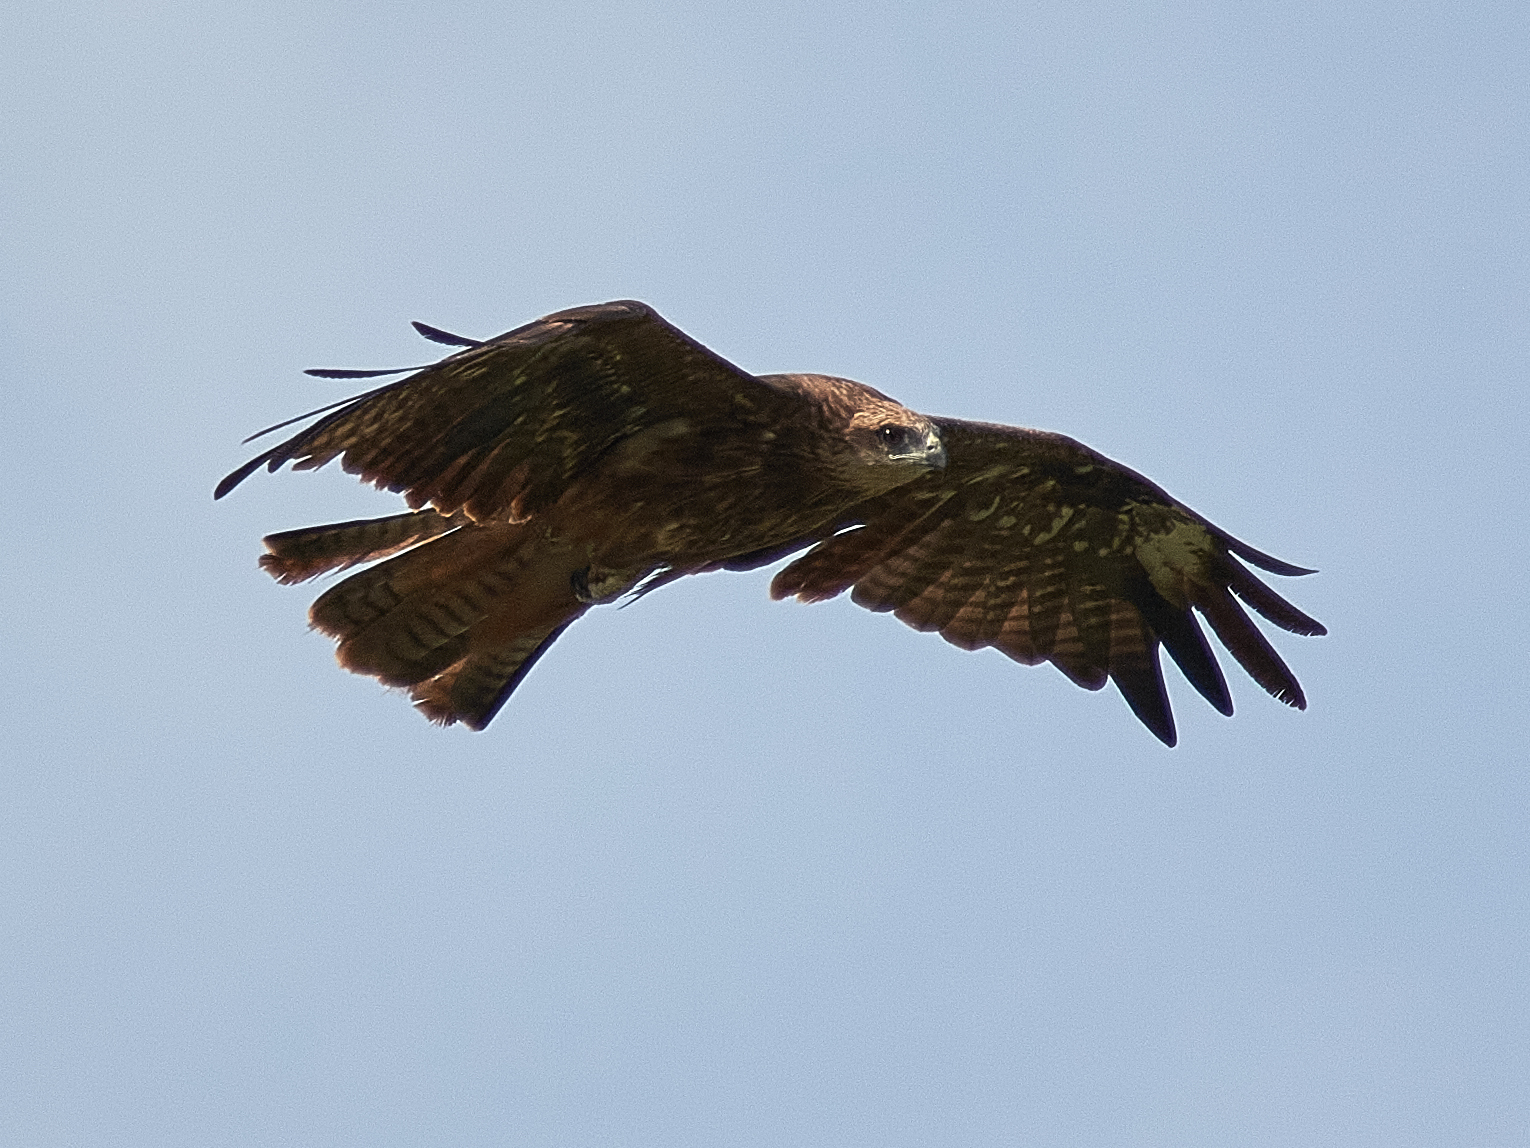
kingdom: Animalia
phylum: Chordata
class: Aves
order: Accipitriformes
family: Accipitridae
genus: Milvus
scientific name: Milvus migrans
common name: Black kite
